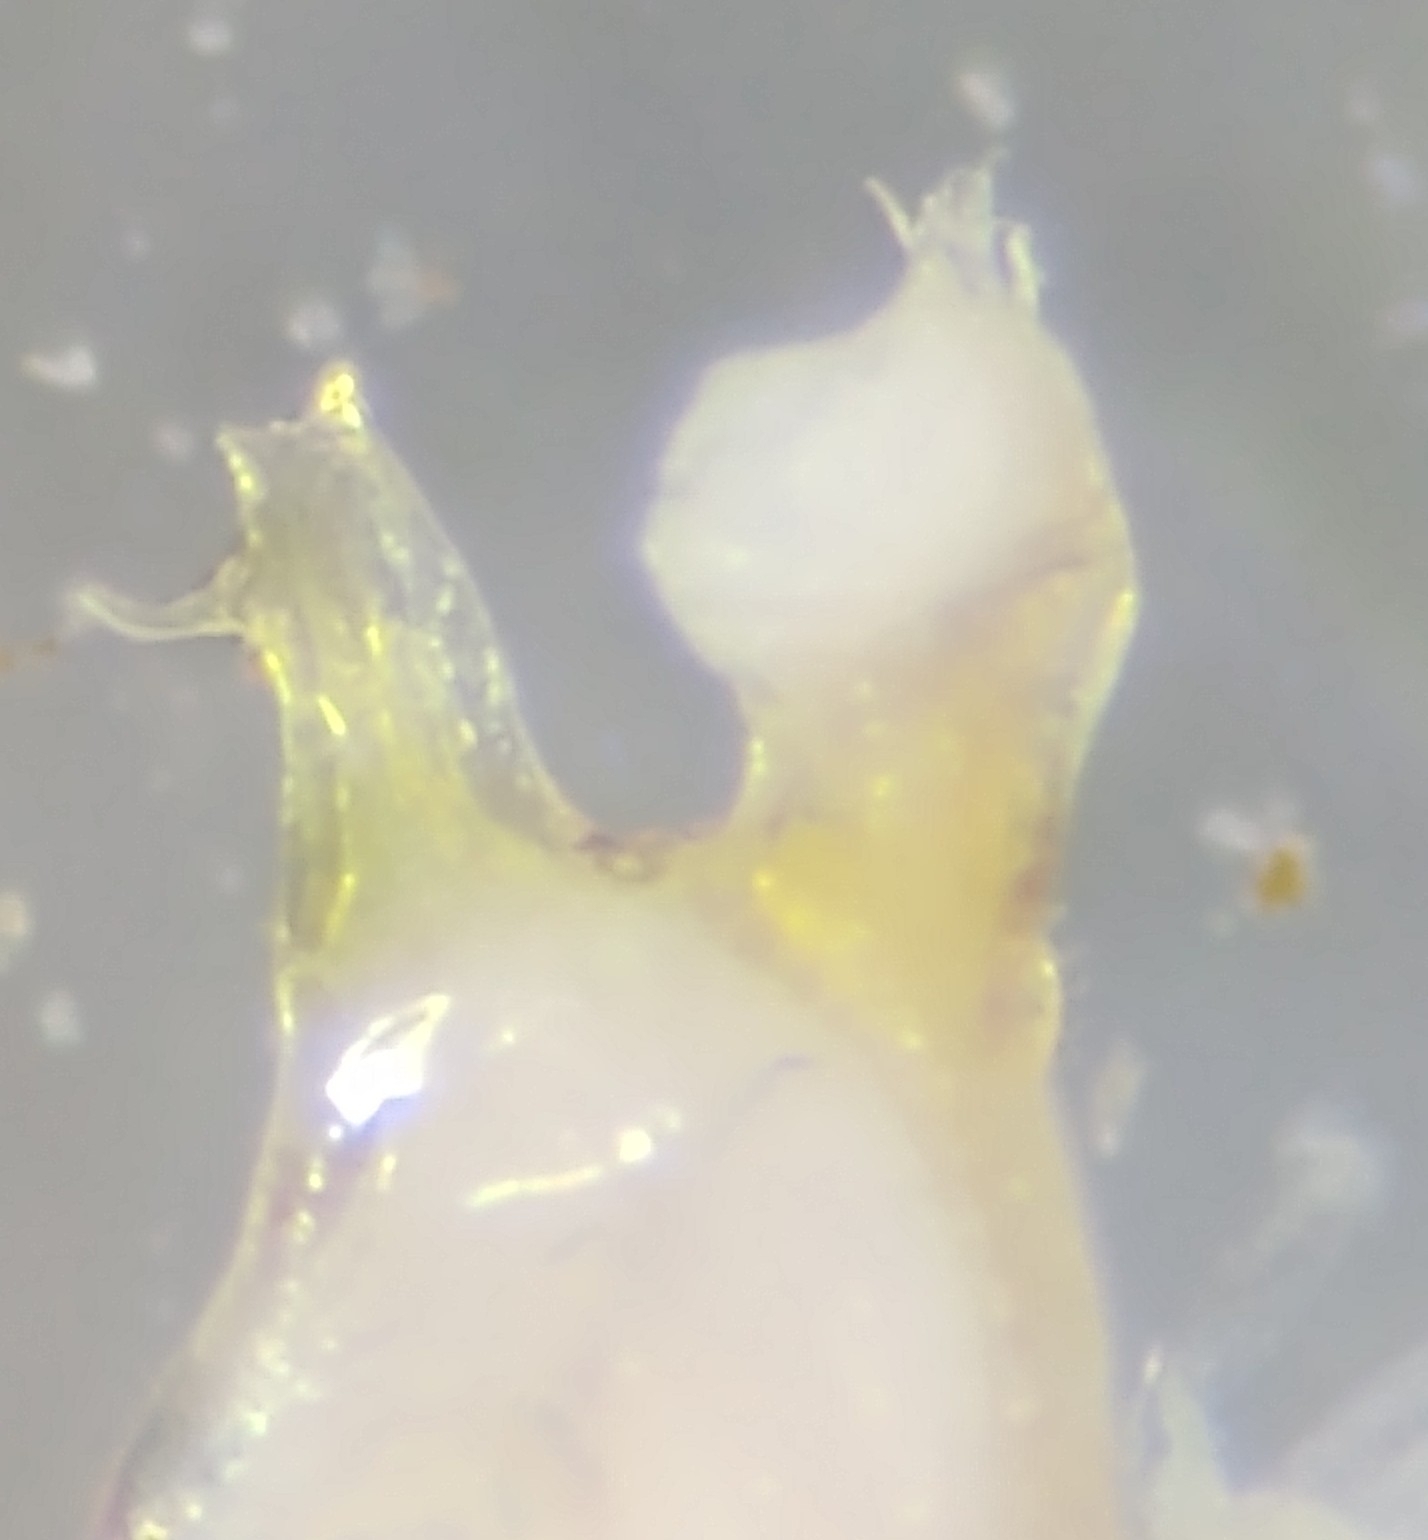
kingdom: Animalia
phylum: Arthropoda
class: Diplopoda
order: Spirostreptida
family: Cambalidae
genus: Cambala
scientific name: Cambala annulata
